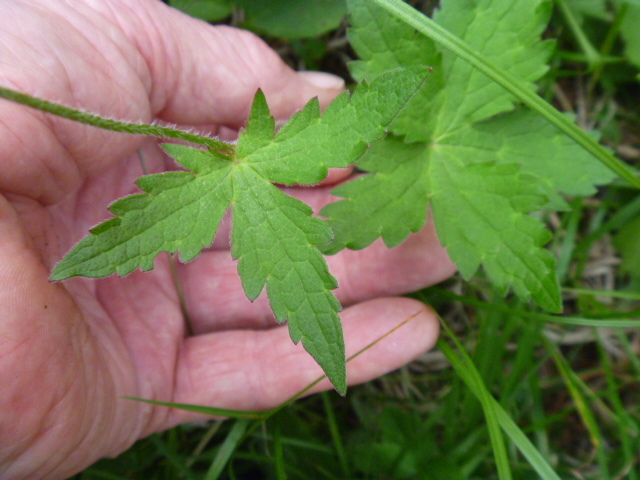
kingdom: Plantae
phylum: Tracheophyta
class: Magnoliopsida
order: Geraniales
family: Geraniaceae
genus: Geranium
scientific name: Geranium platyanthum
